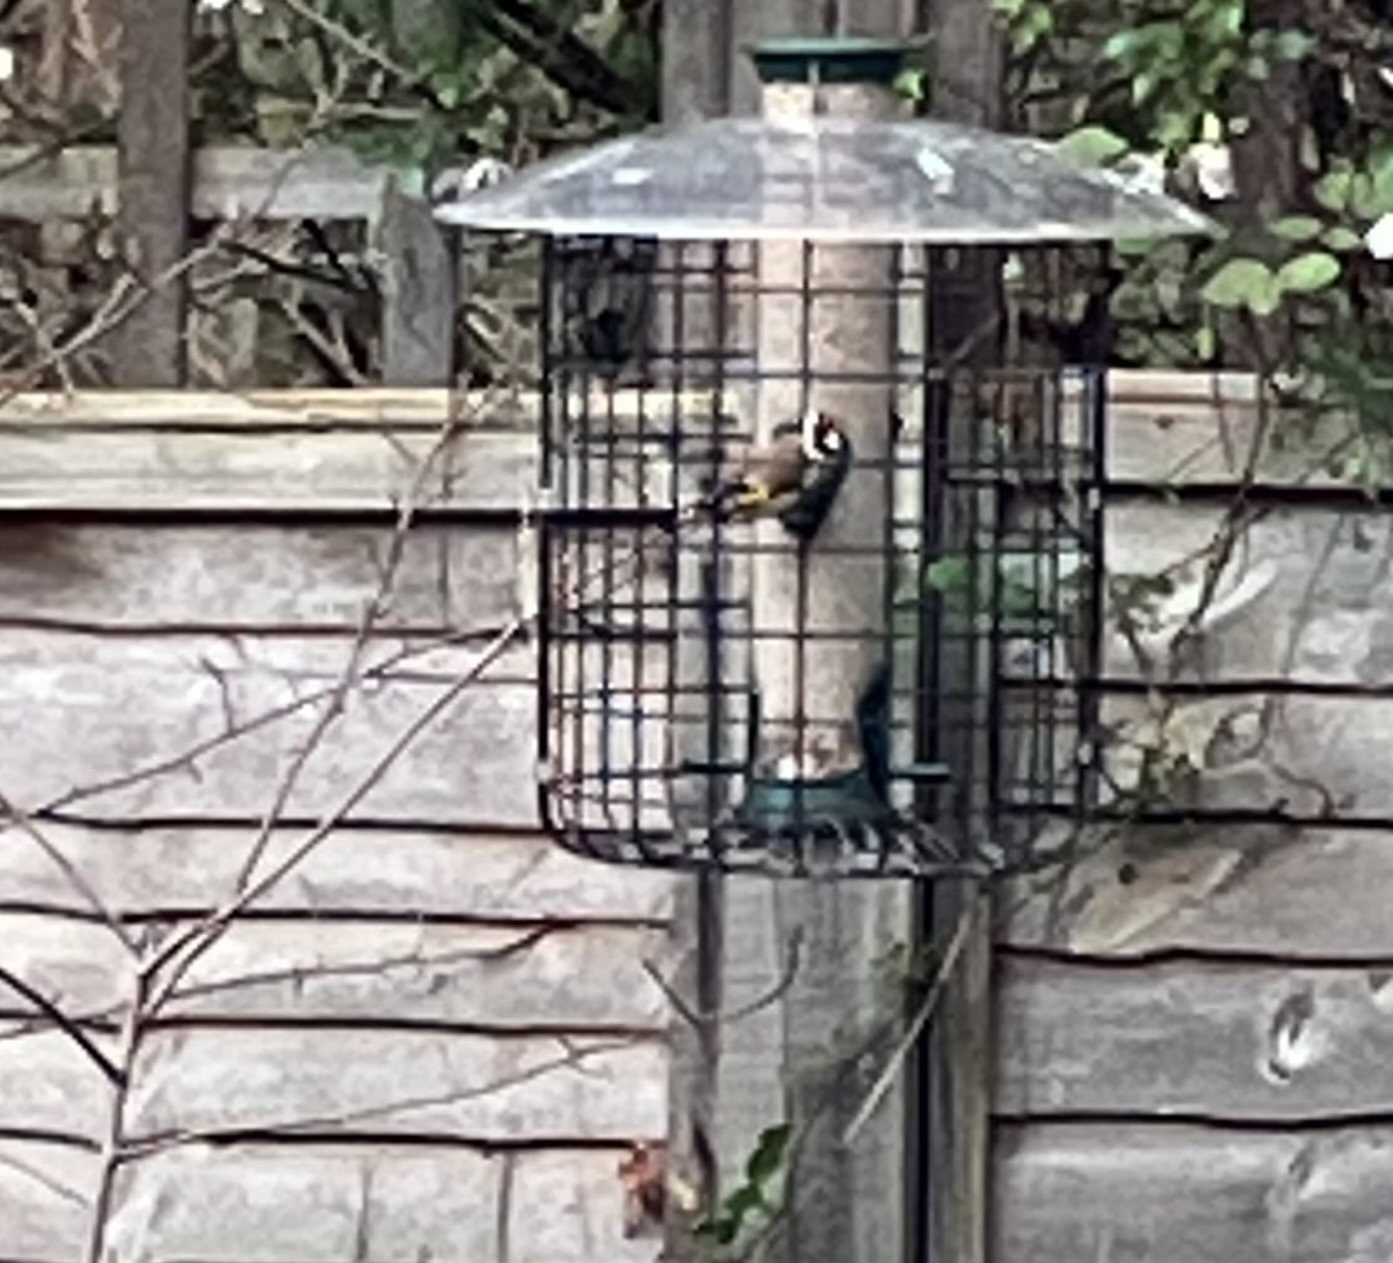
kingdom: Animalia
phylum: Chordata
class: Aves
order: Passeriformes
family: Fringillidae
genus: Carduelis
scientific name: Carduelis carduelis
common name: European goldfinch
